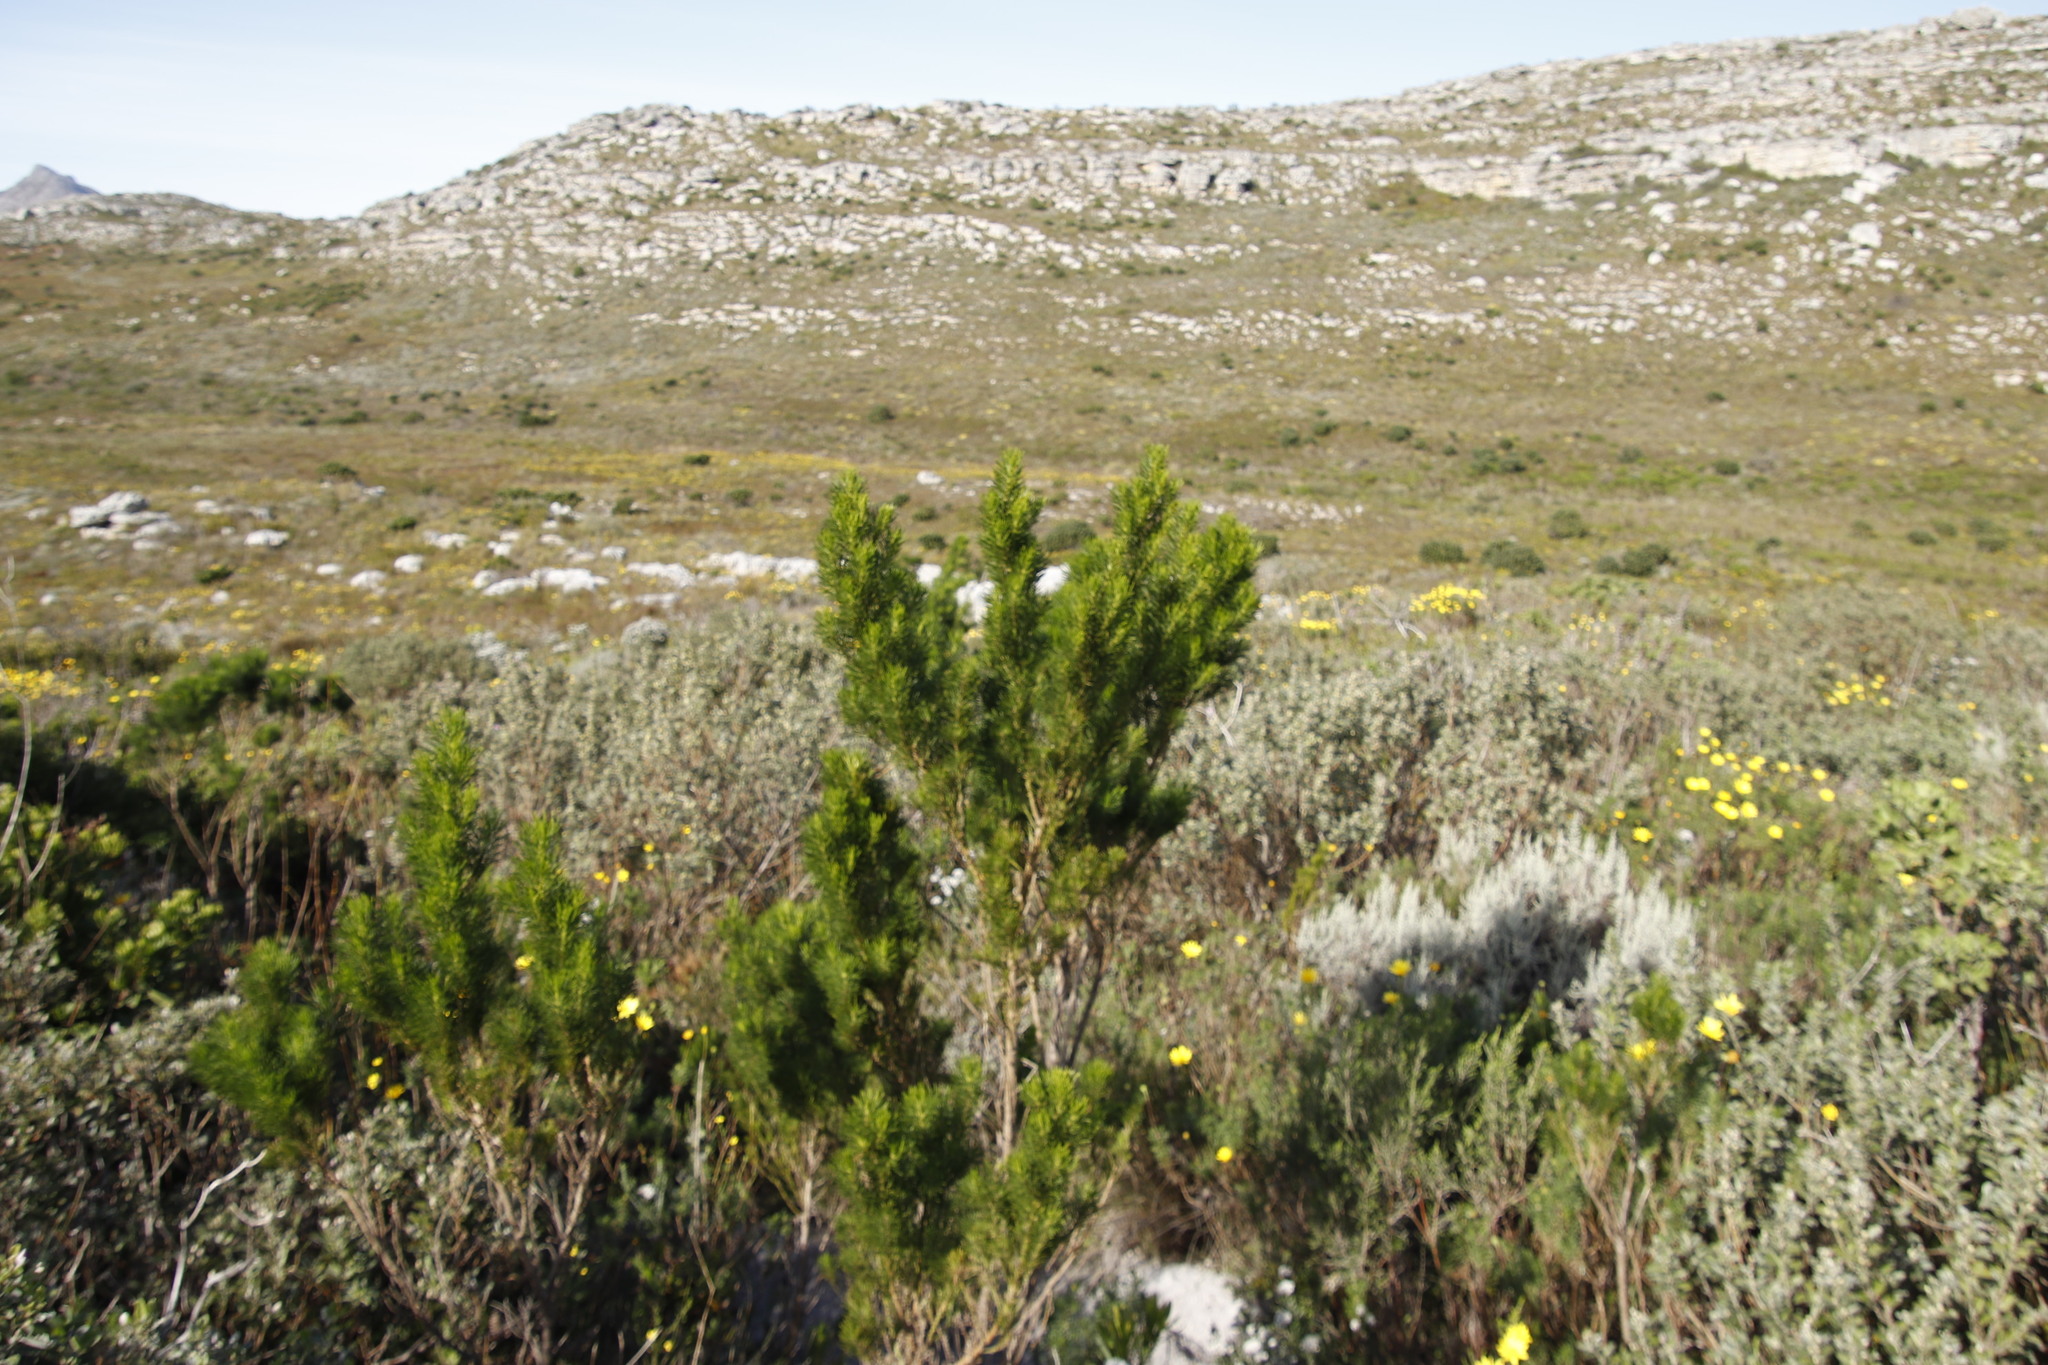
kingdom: Plantae
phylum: Tracheophyta
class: Magnoliopsida
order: Fabales
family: Fabaceae
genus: Psoralea
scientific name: Psoralea pinnata
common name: African scurfpea
